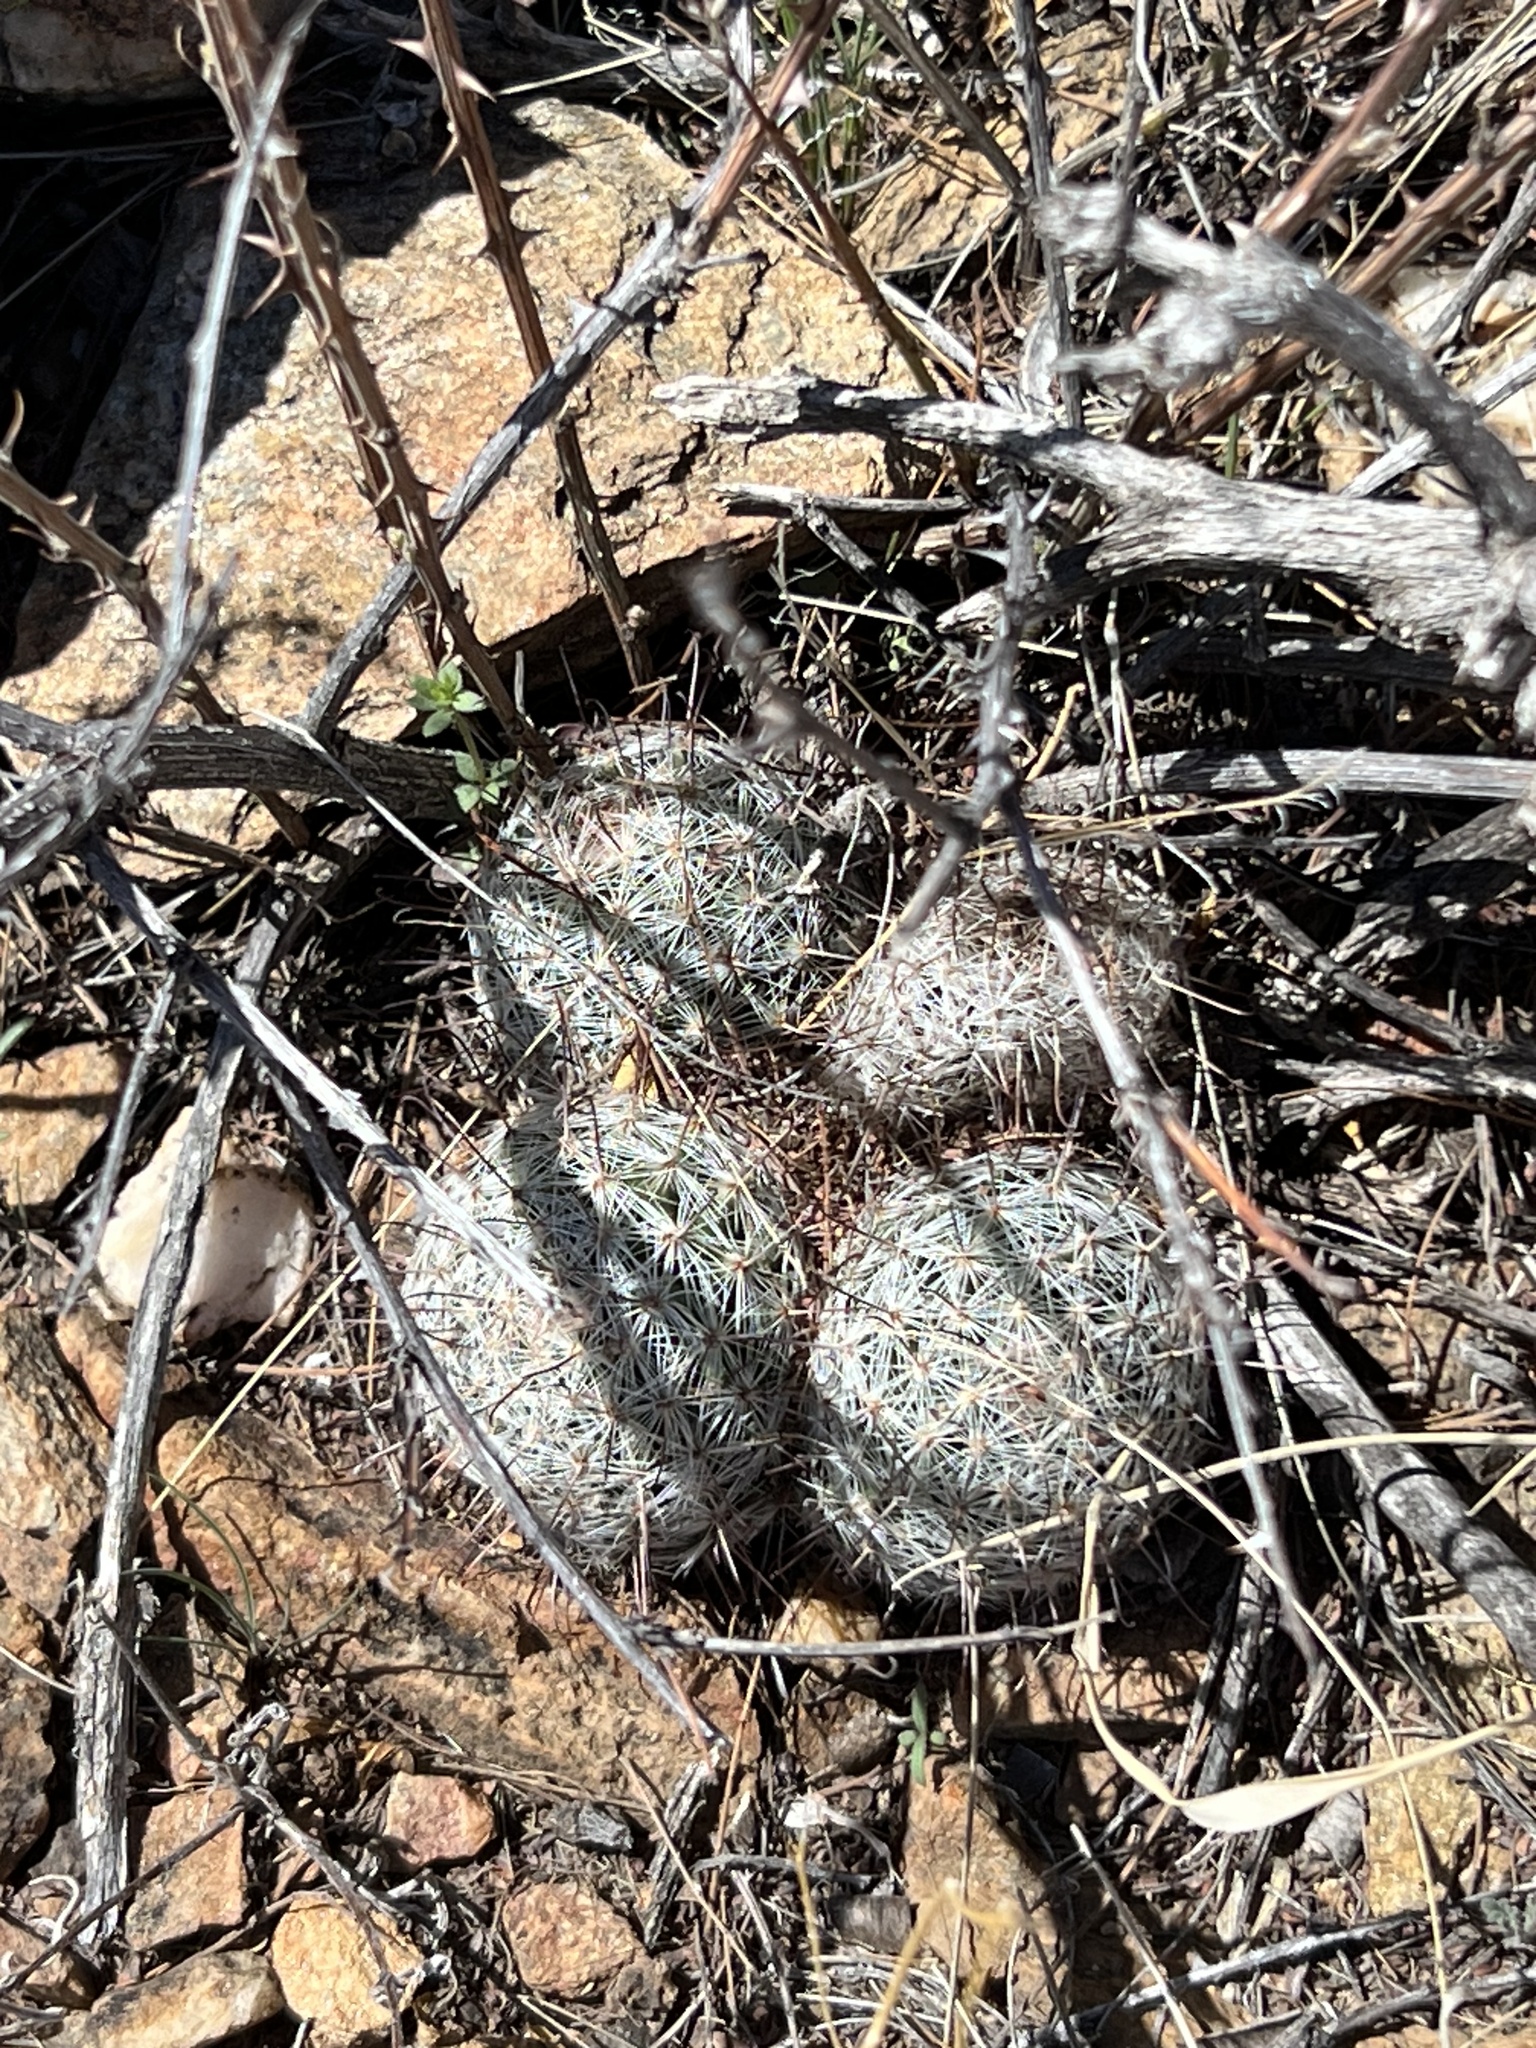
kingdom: Plantae
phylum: Tracheophyta
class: Magnoliopsida
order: Caryophyllales
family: Cactaceae
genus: Cochemiea
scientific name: Cochemiea grahamii
